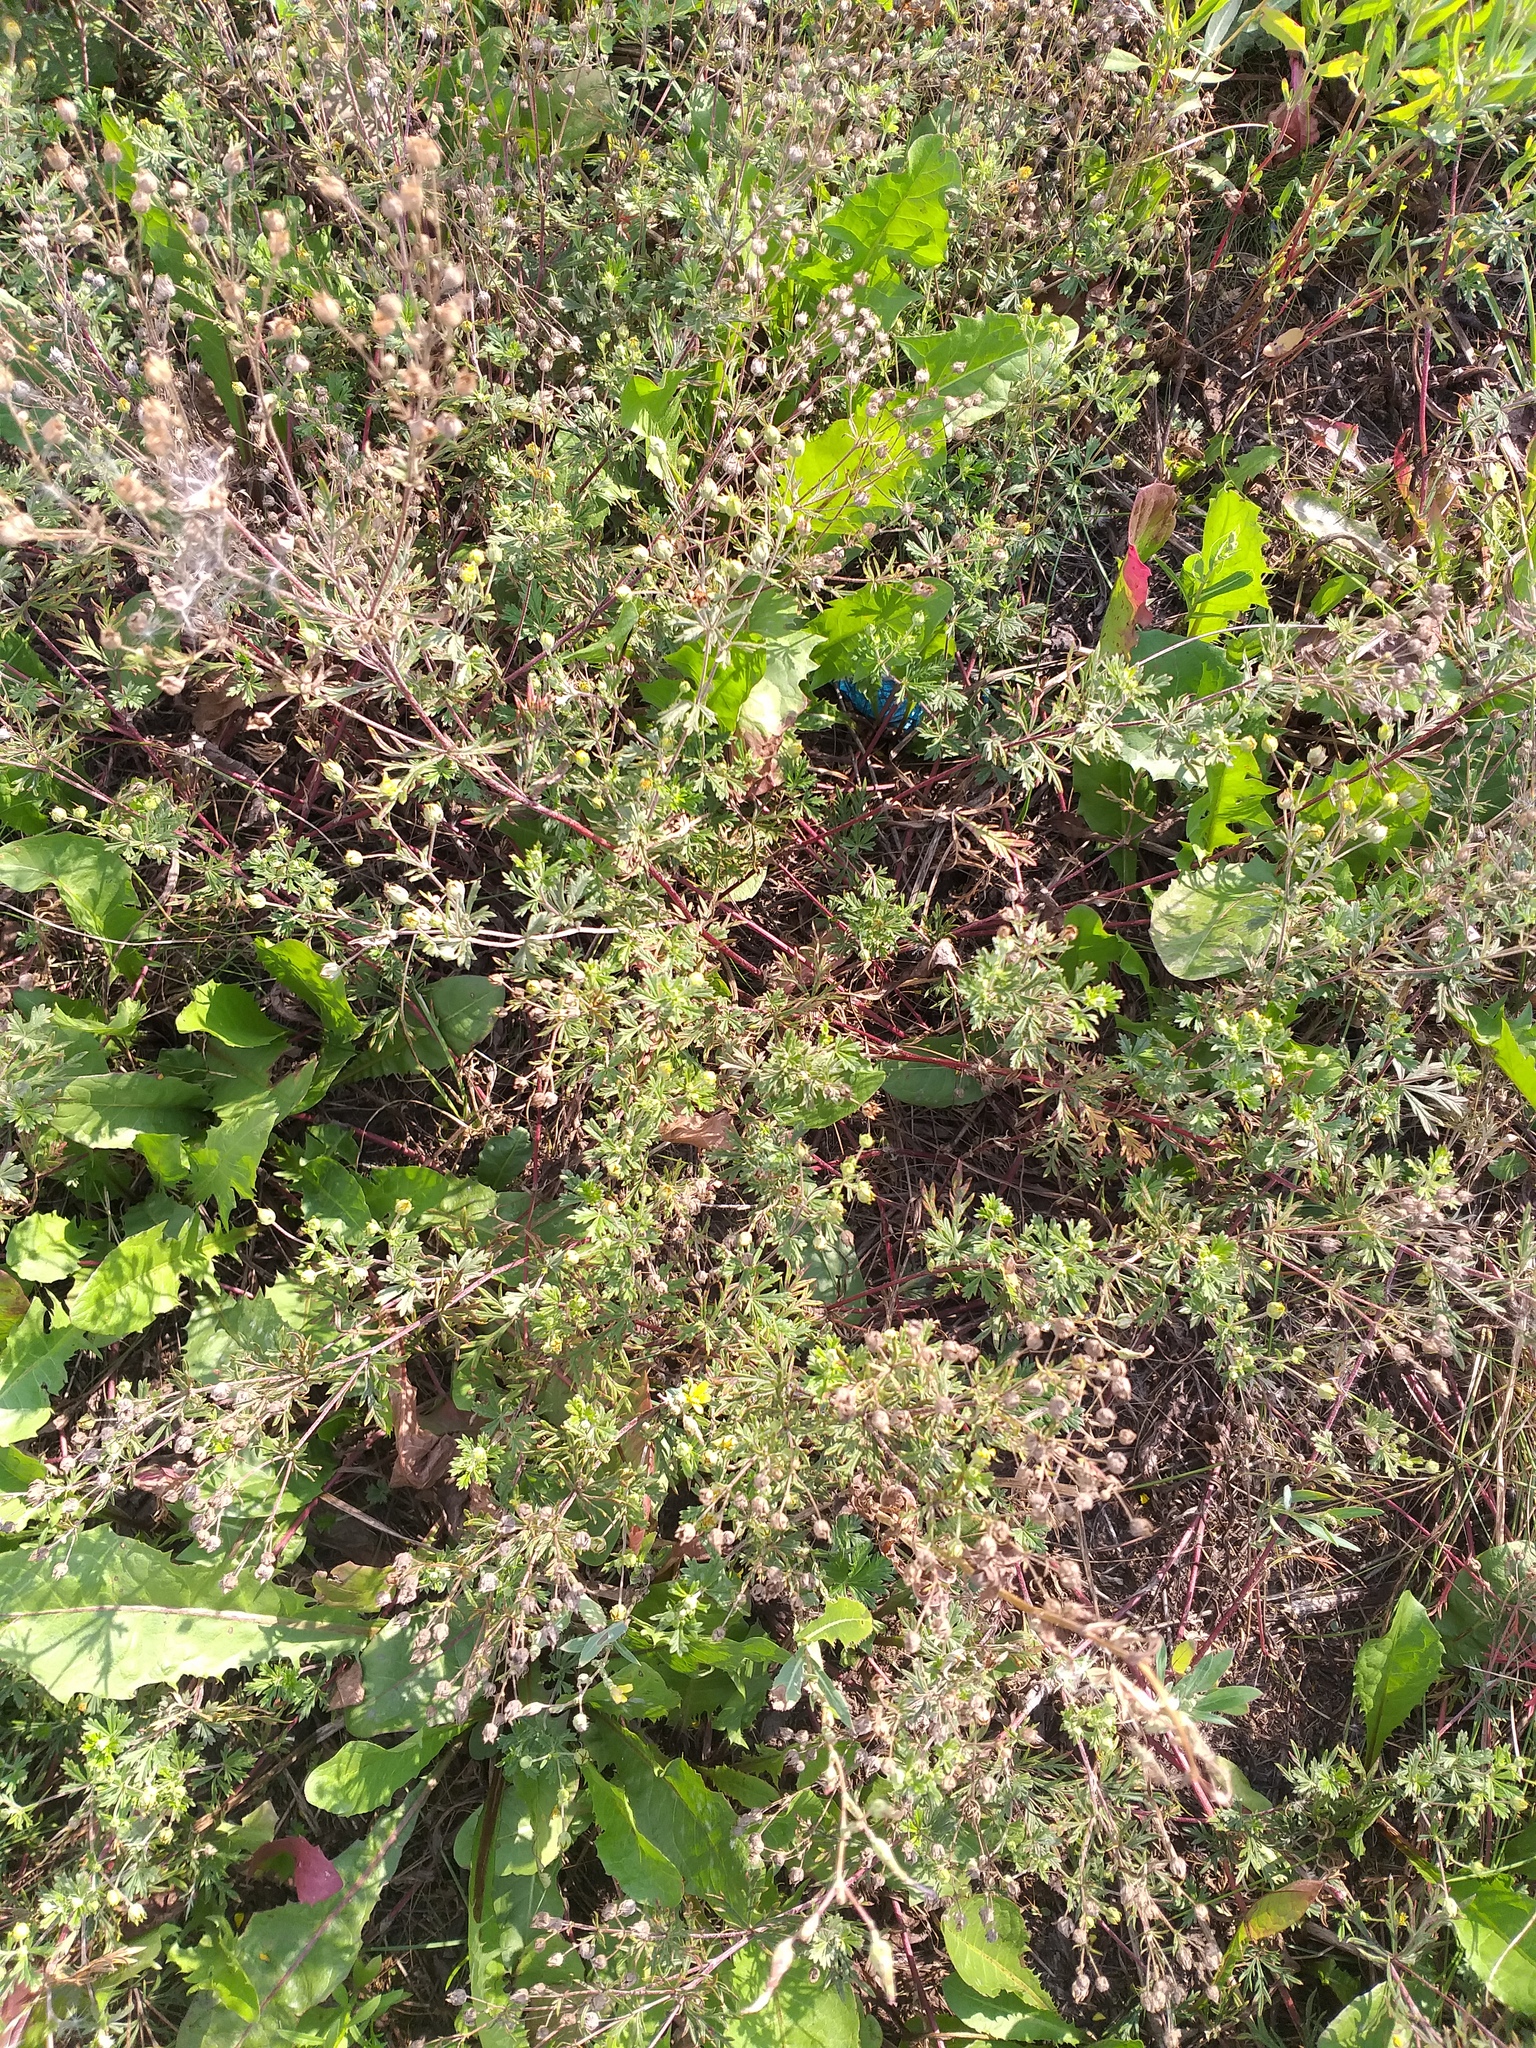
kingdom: Plantae
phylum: Tracheophyta
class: Magnoliopsida
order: Rosales
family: Rosaceae
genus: Potentilla
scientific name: Potentilla argentea
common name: Hoary cinquefoil
